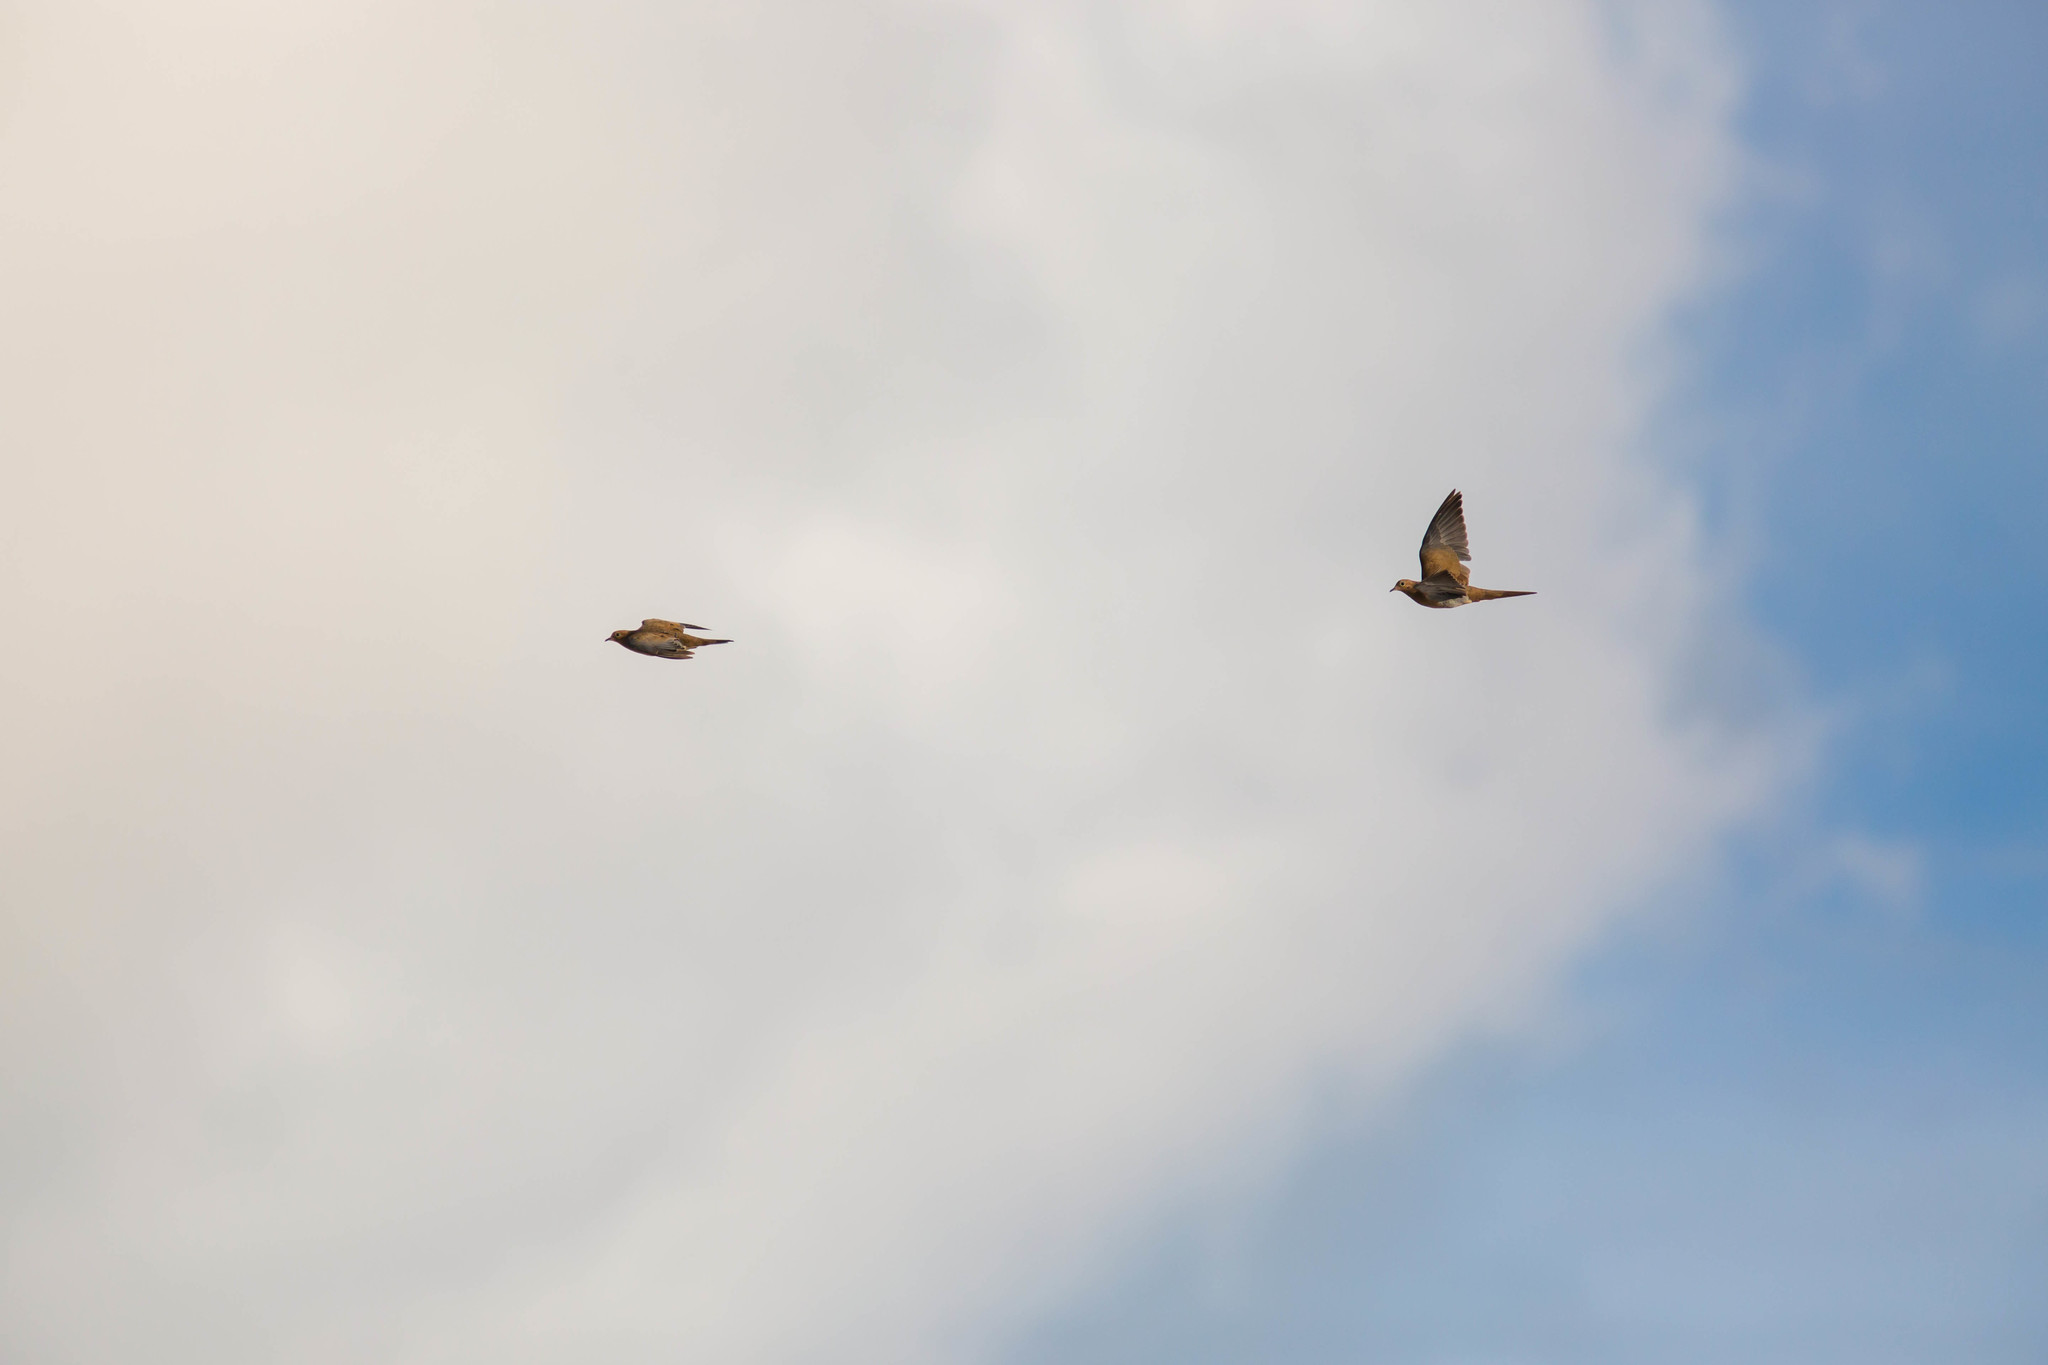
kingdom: Animalia
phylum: Chordata
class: Aves
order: Columbiformes
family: Columbidae
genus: Zenaida
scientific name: Zenaida macroura
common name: Mourning dove
